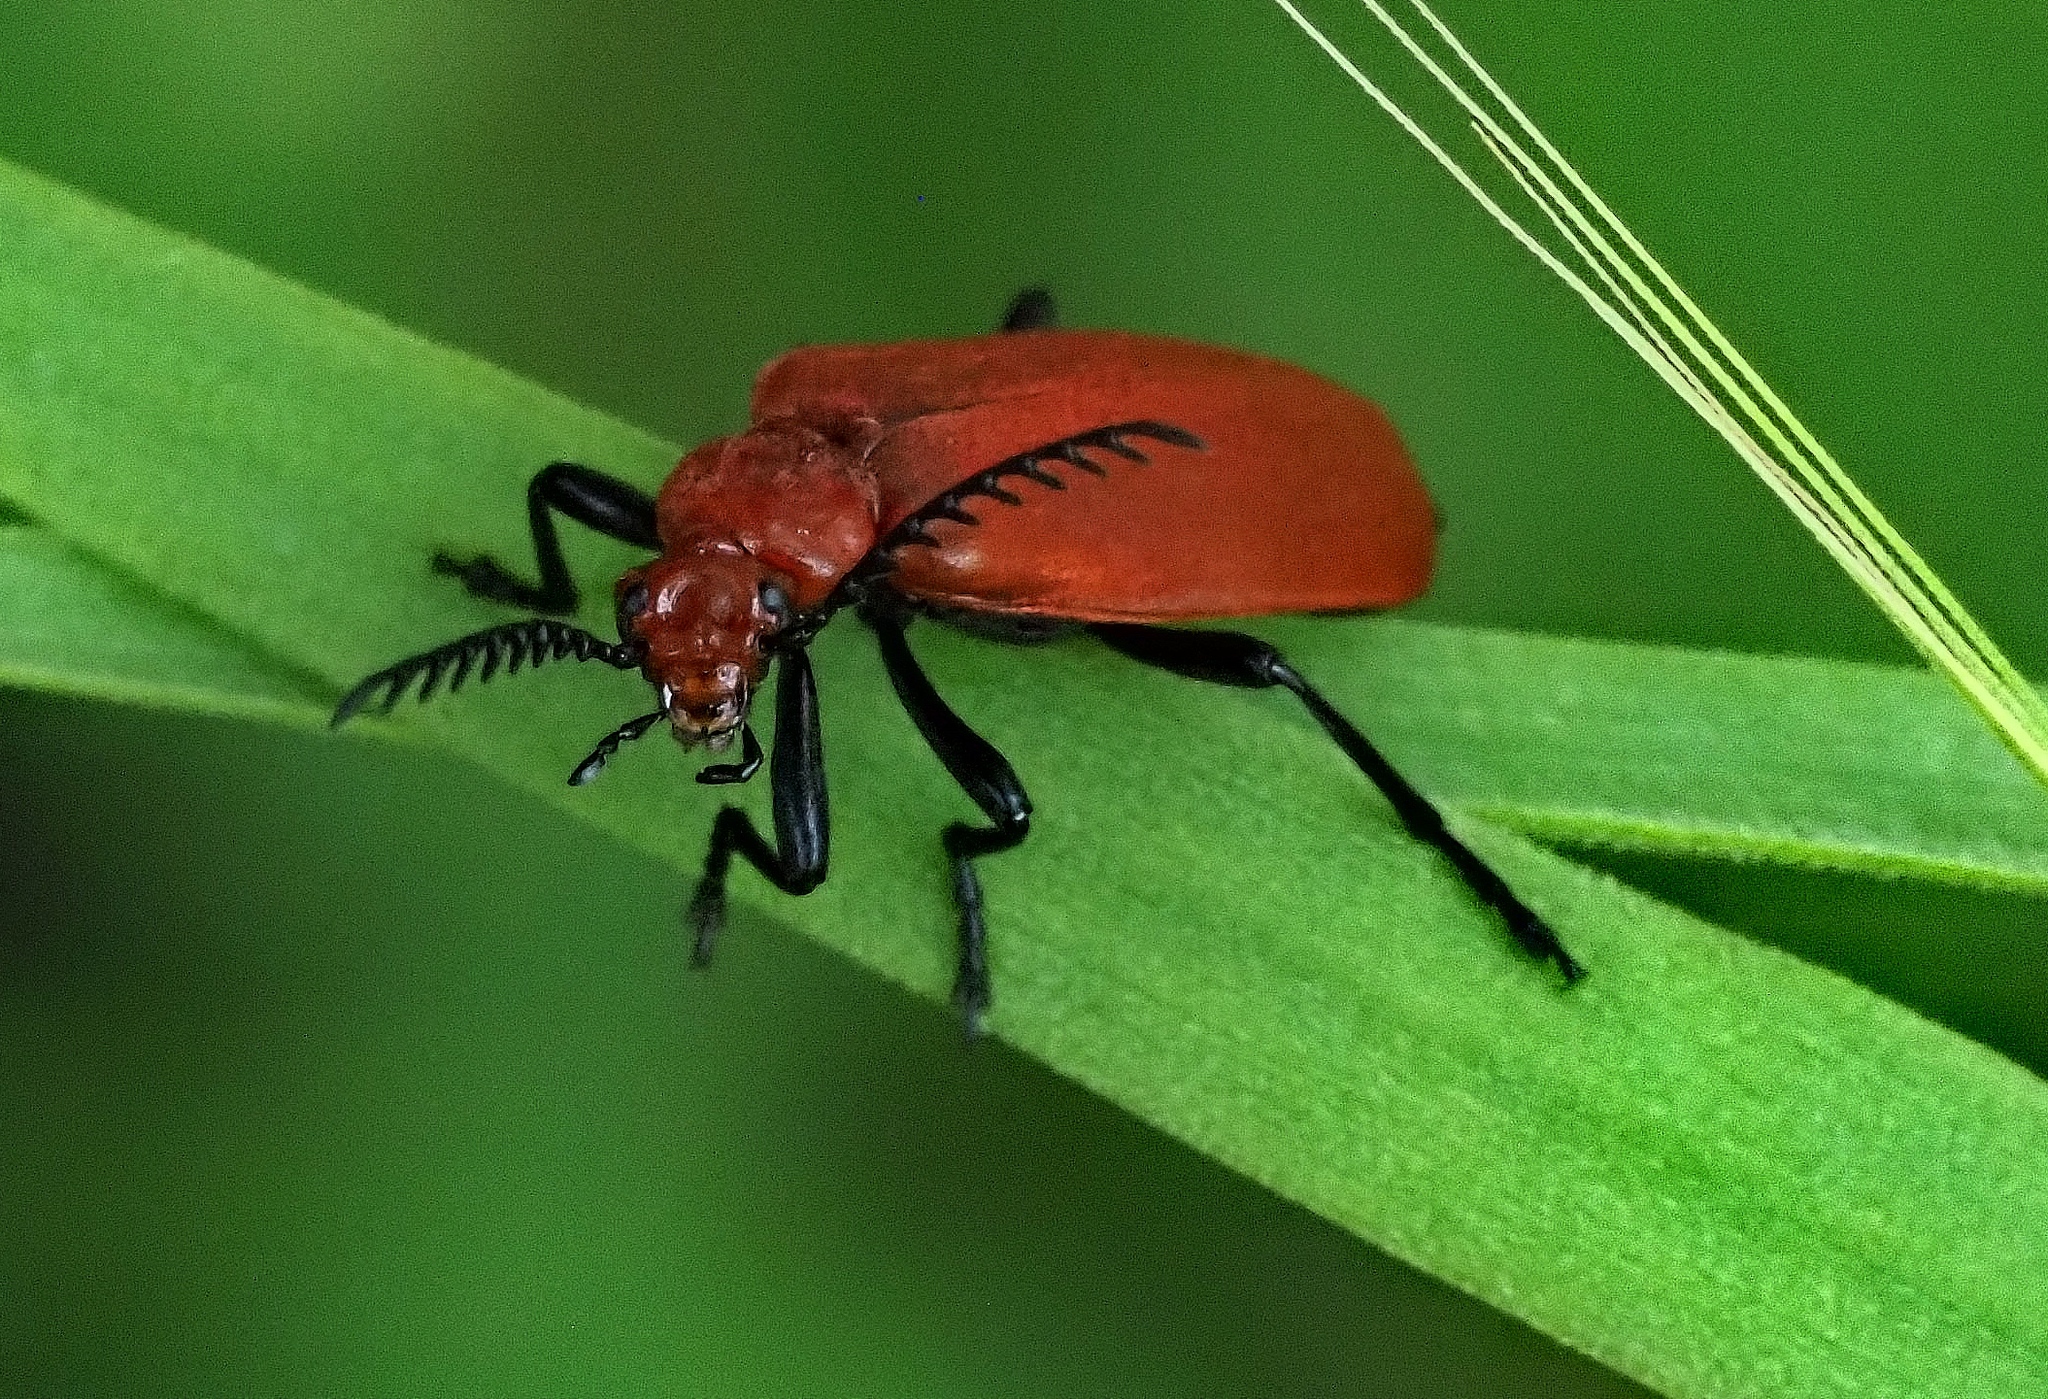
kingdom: Animalia
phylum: Arthropoda
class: Insecta
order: Coleoptera
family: Pyrochroidae
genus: Pyrochroa
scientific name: Pyrochroa serraticornis
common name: Red-headed cardinal beetle
